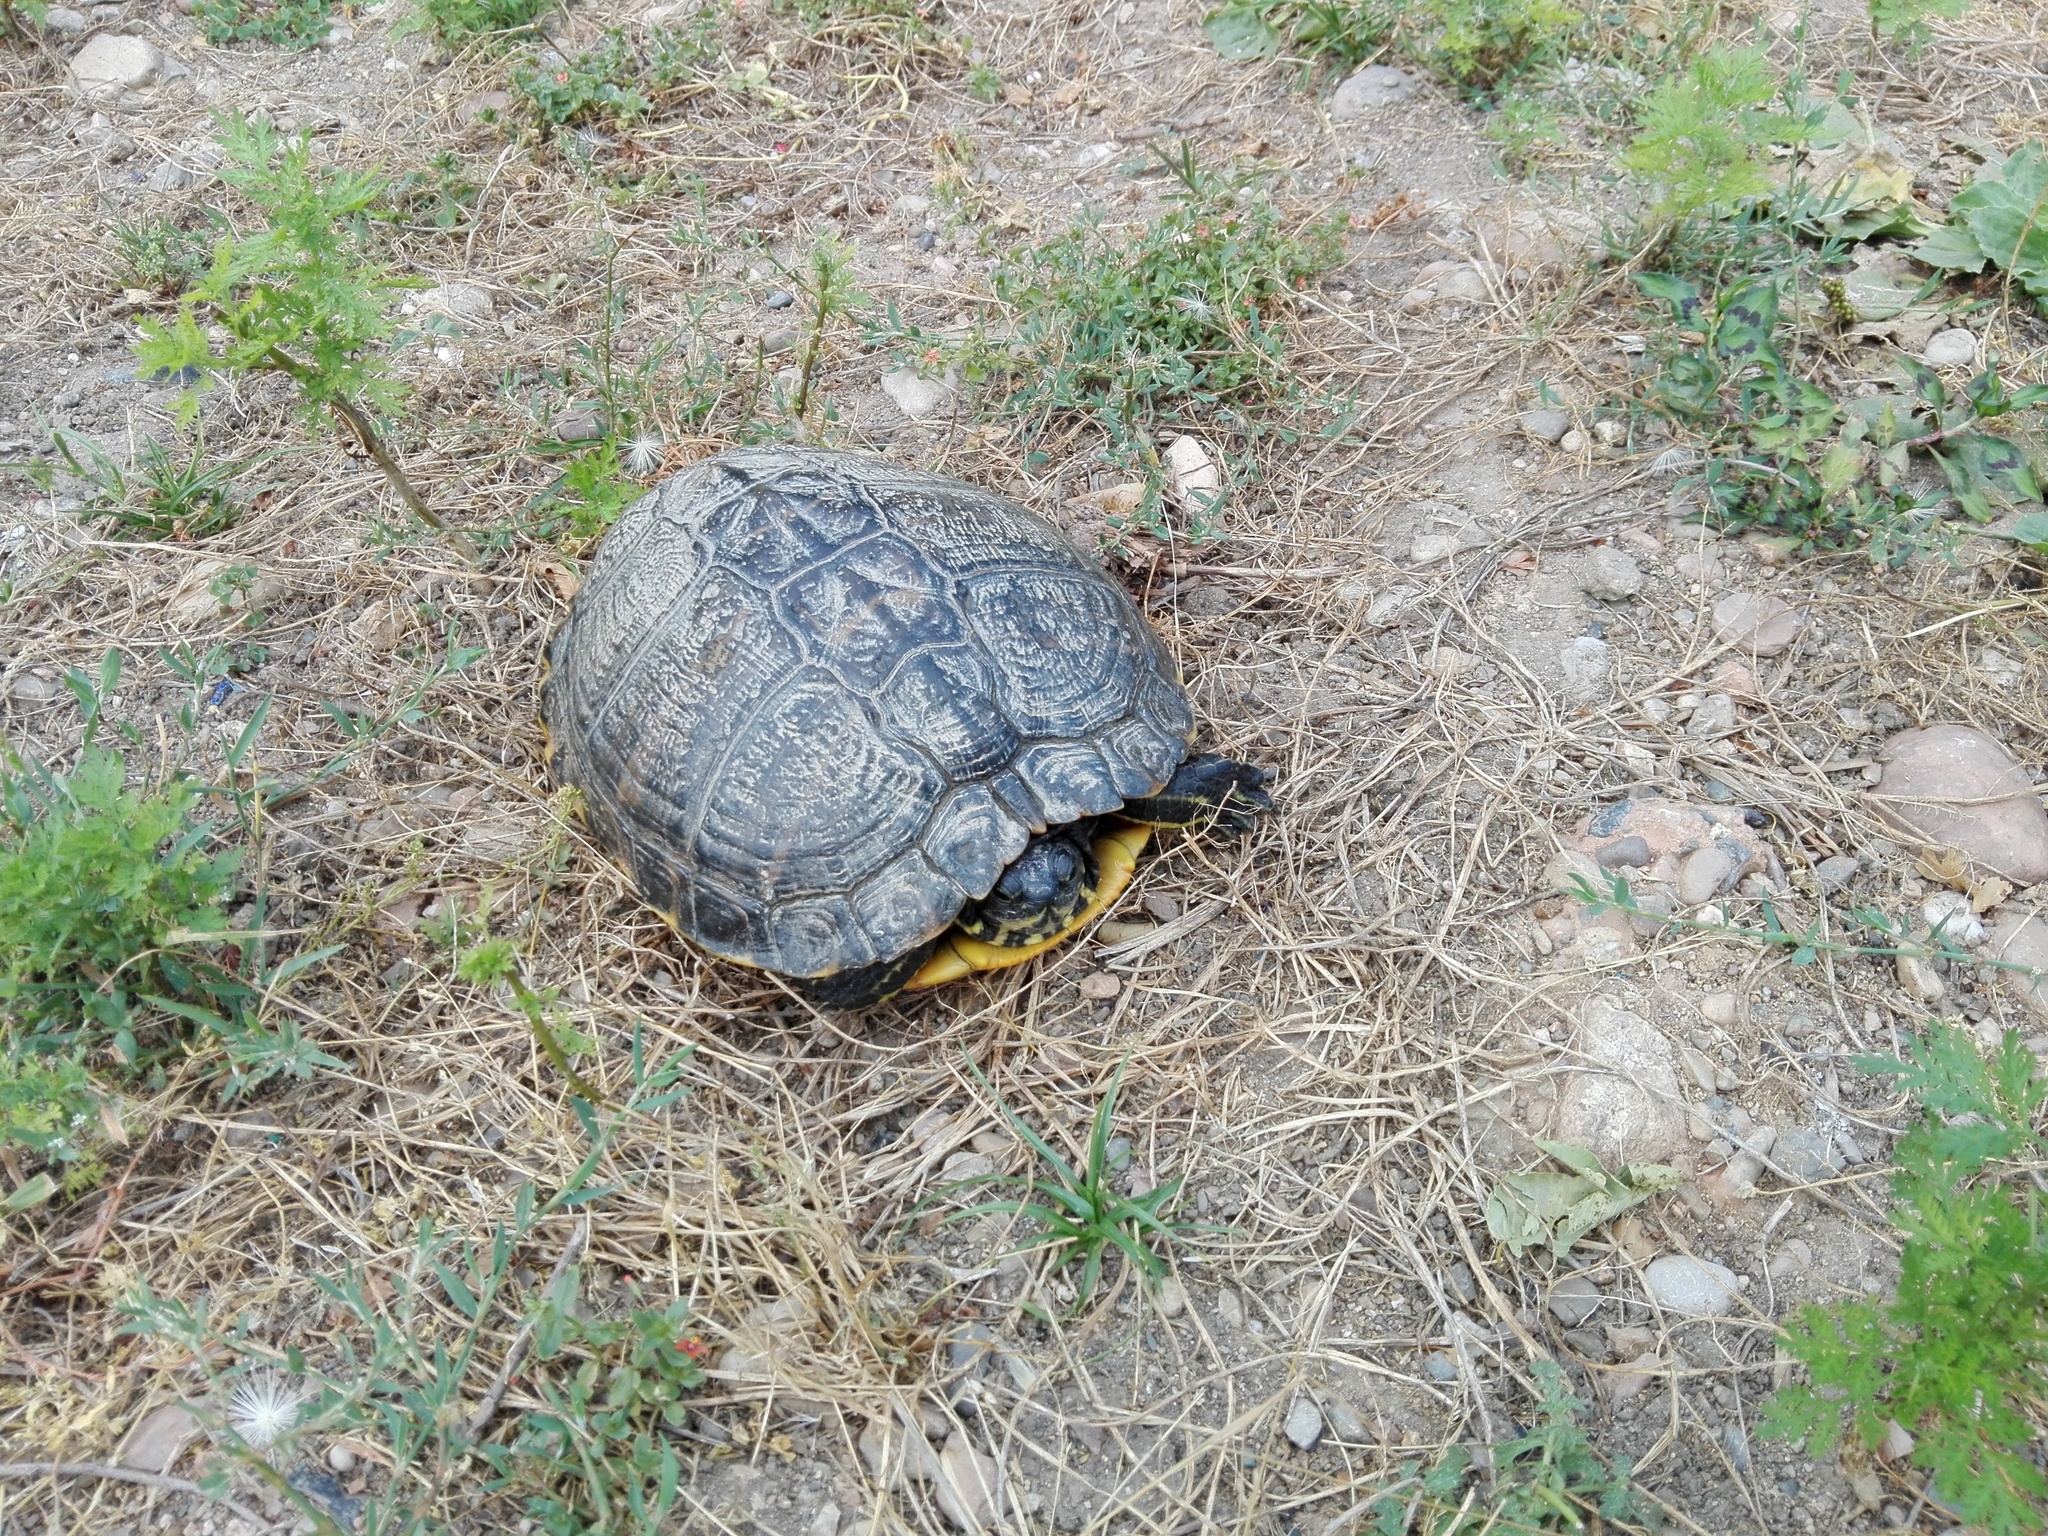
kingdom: Animalia
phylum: Chordata
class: Testudines
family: Emydidae
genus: Trachemys
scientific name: Trachemys scripta
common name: Slider
